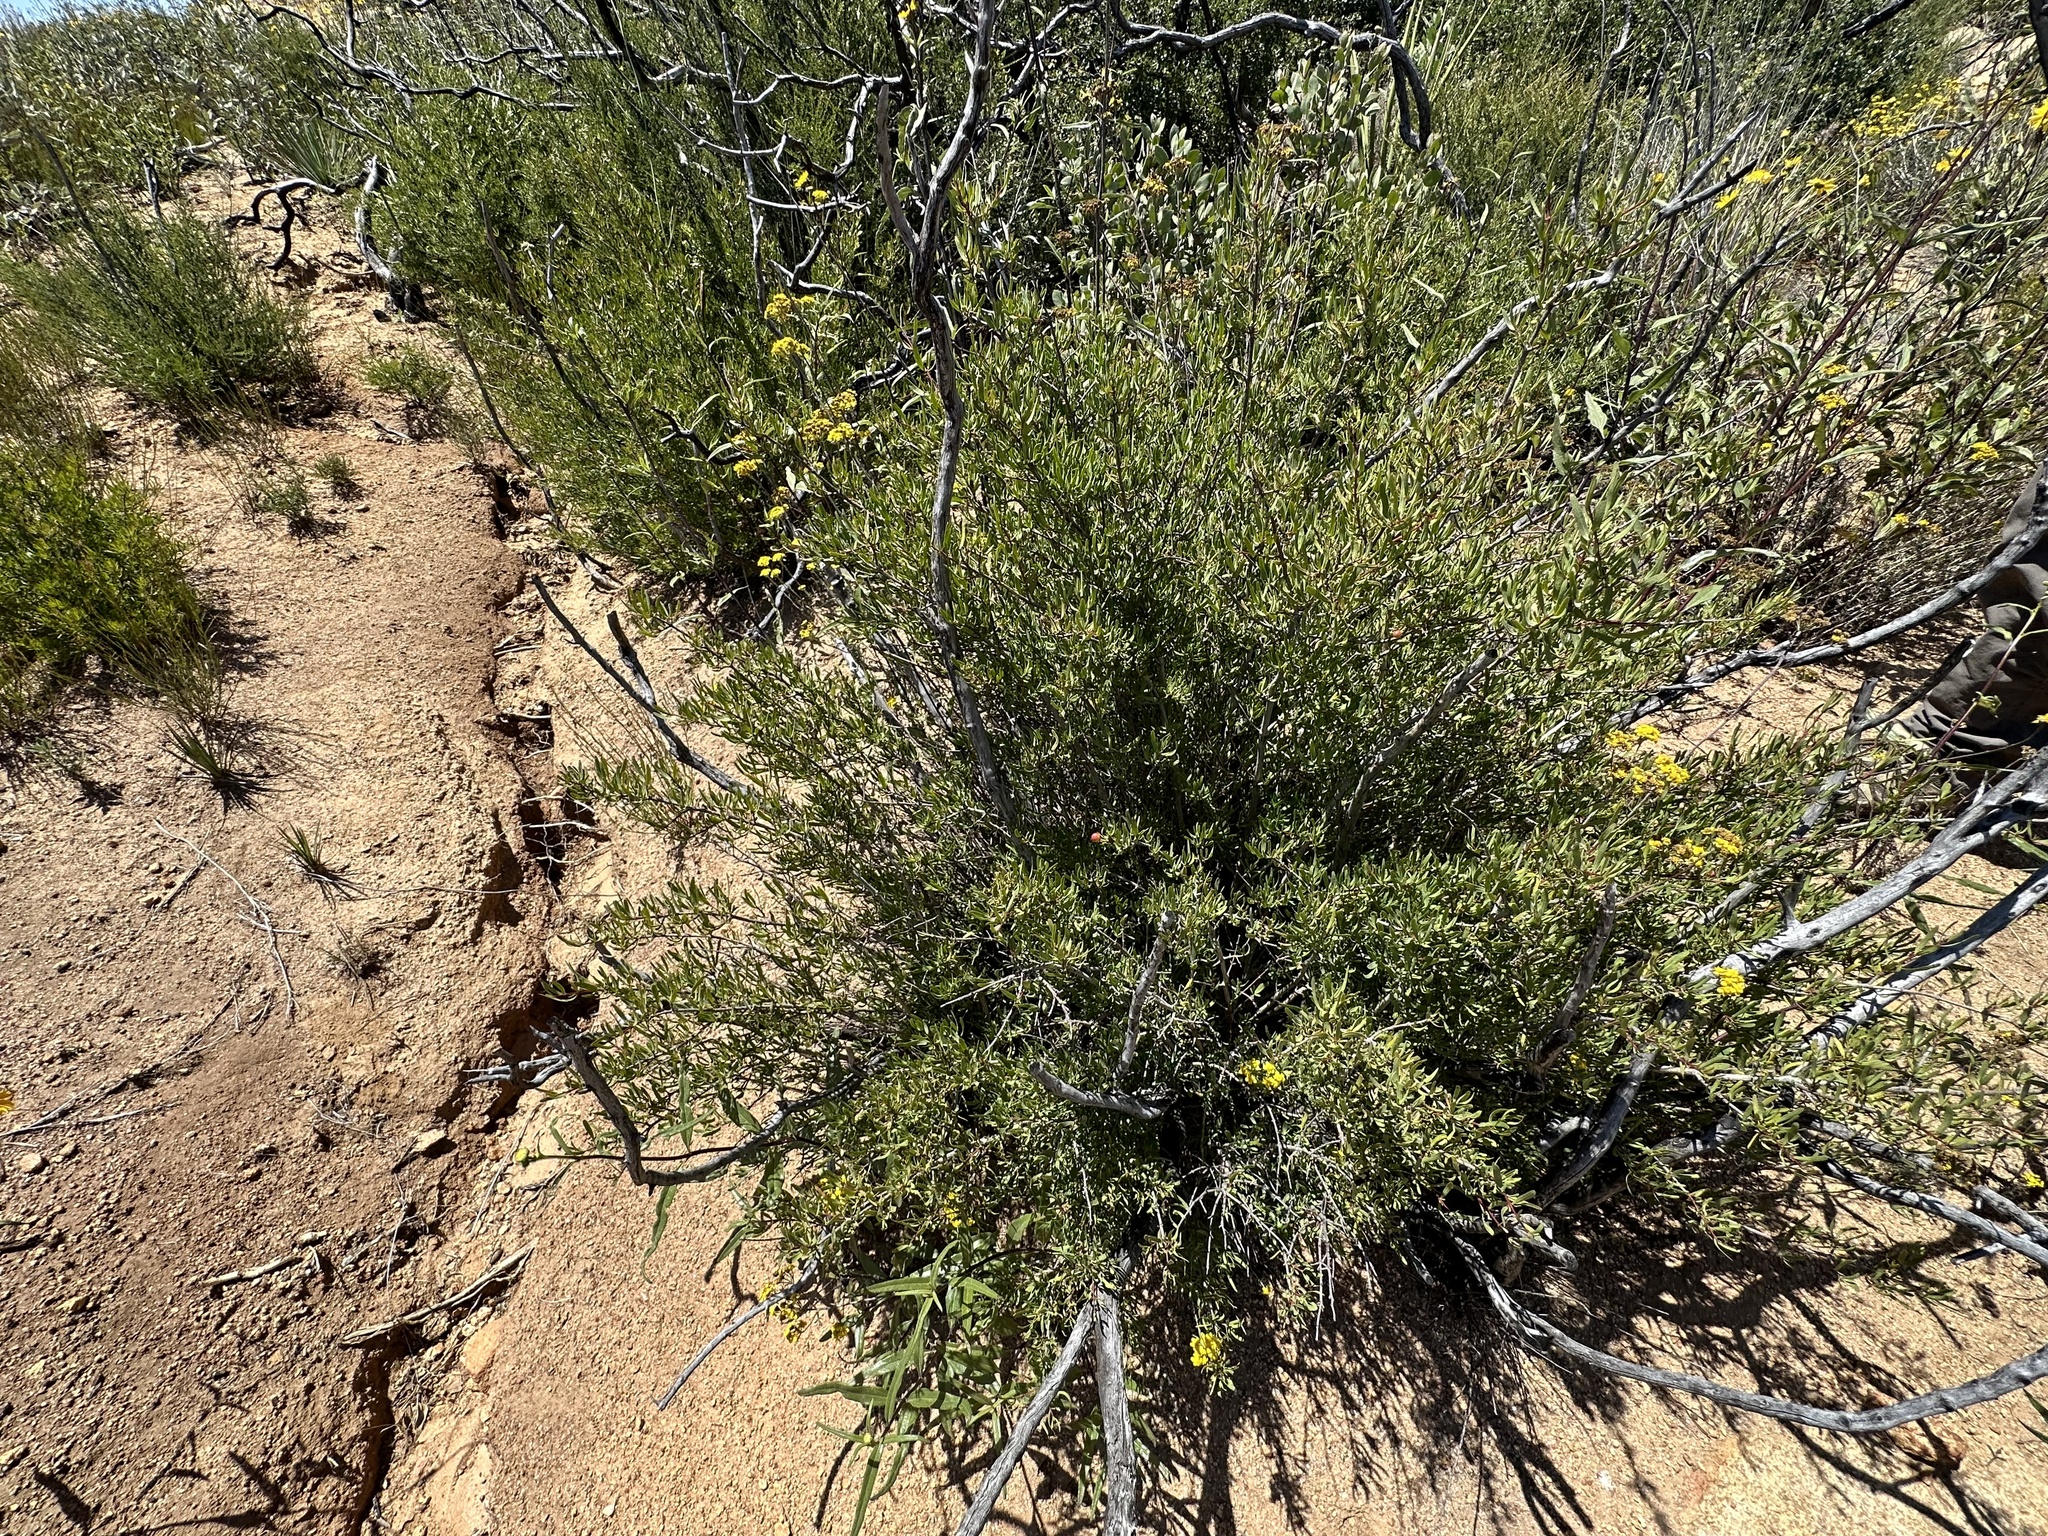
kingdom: Plantae
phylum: Tracheophyta
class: Magnoliopsida
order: Sapindales
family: Rutaceae
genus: Cneoridium
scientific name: Cneoridium dumosum
